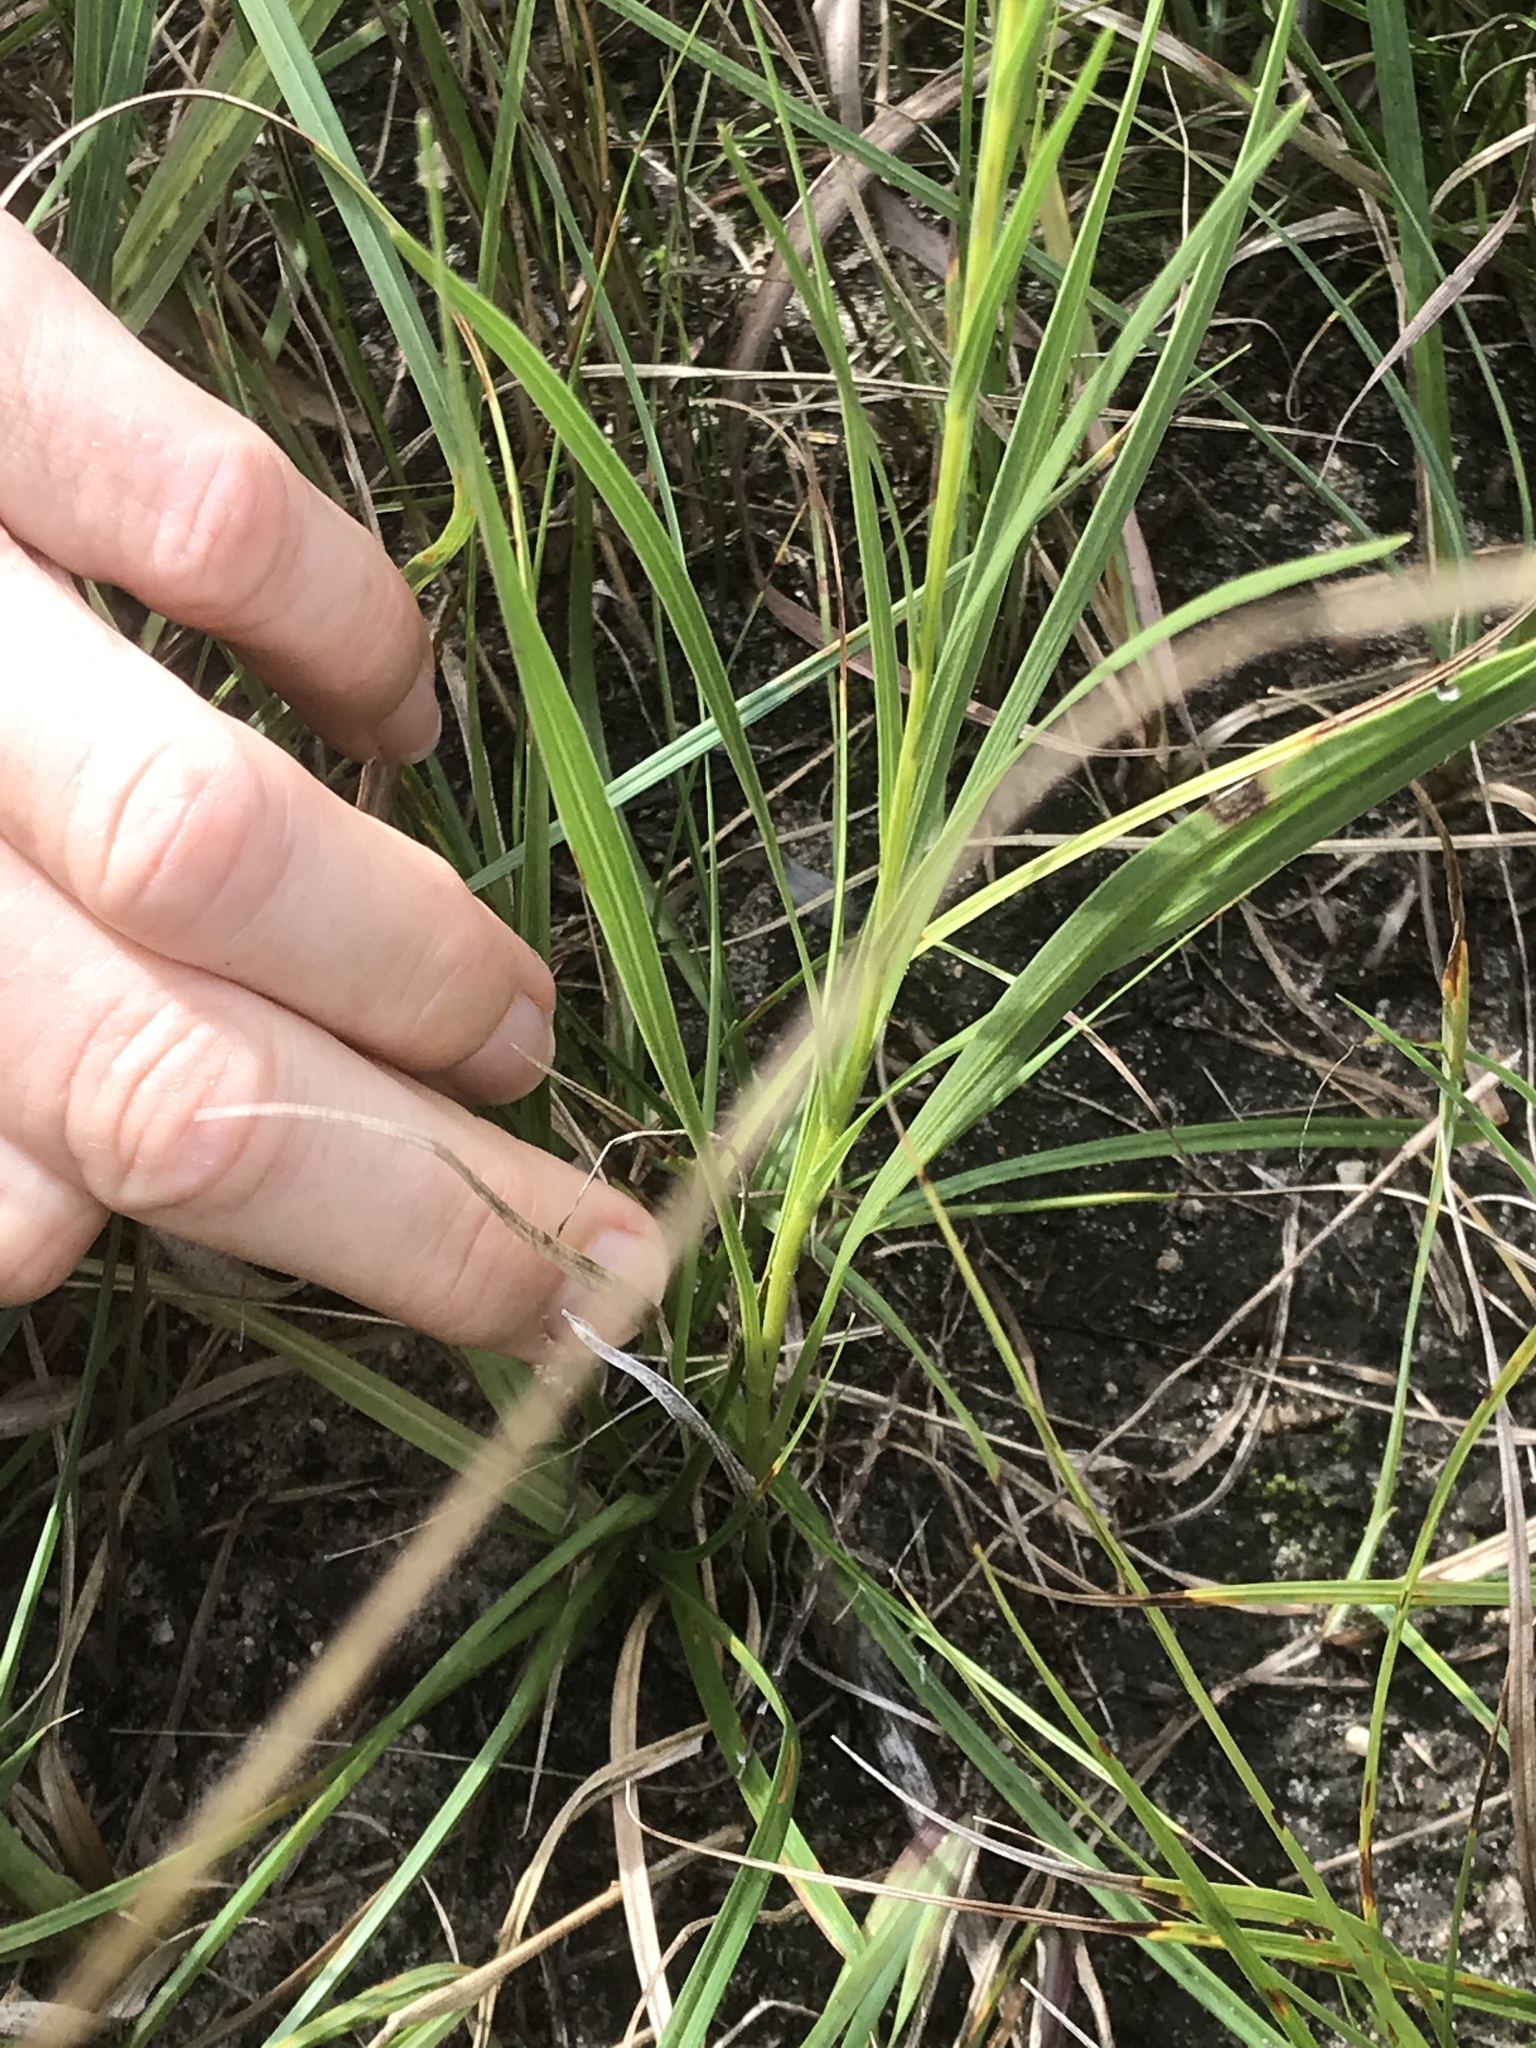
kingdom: Plantae
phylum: Tracheophyta
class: Magnoliopsida
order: Asterales
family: Asteraceae
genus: Liatris
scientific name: Liatris cylindracea
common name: Few-head blazingstar
